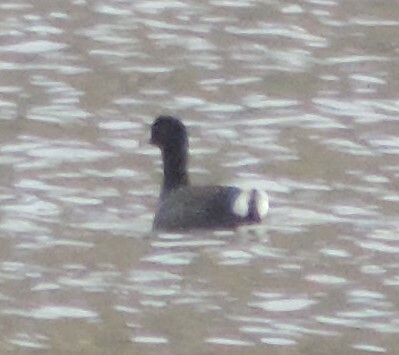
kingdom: Animalia
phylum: Chordata
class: Aves
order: Gruiformes
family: Rallidae
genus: Fulica
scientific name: Fulica americana
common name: American coot
